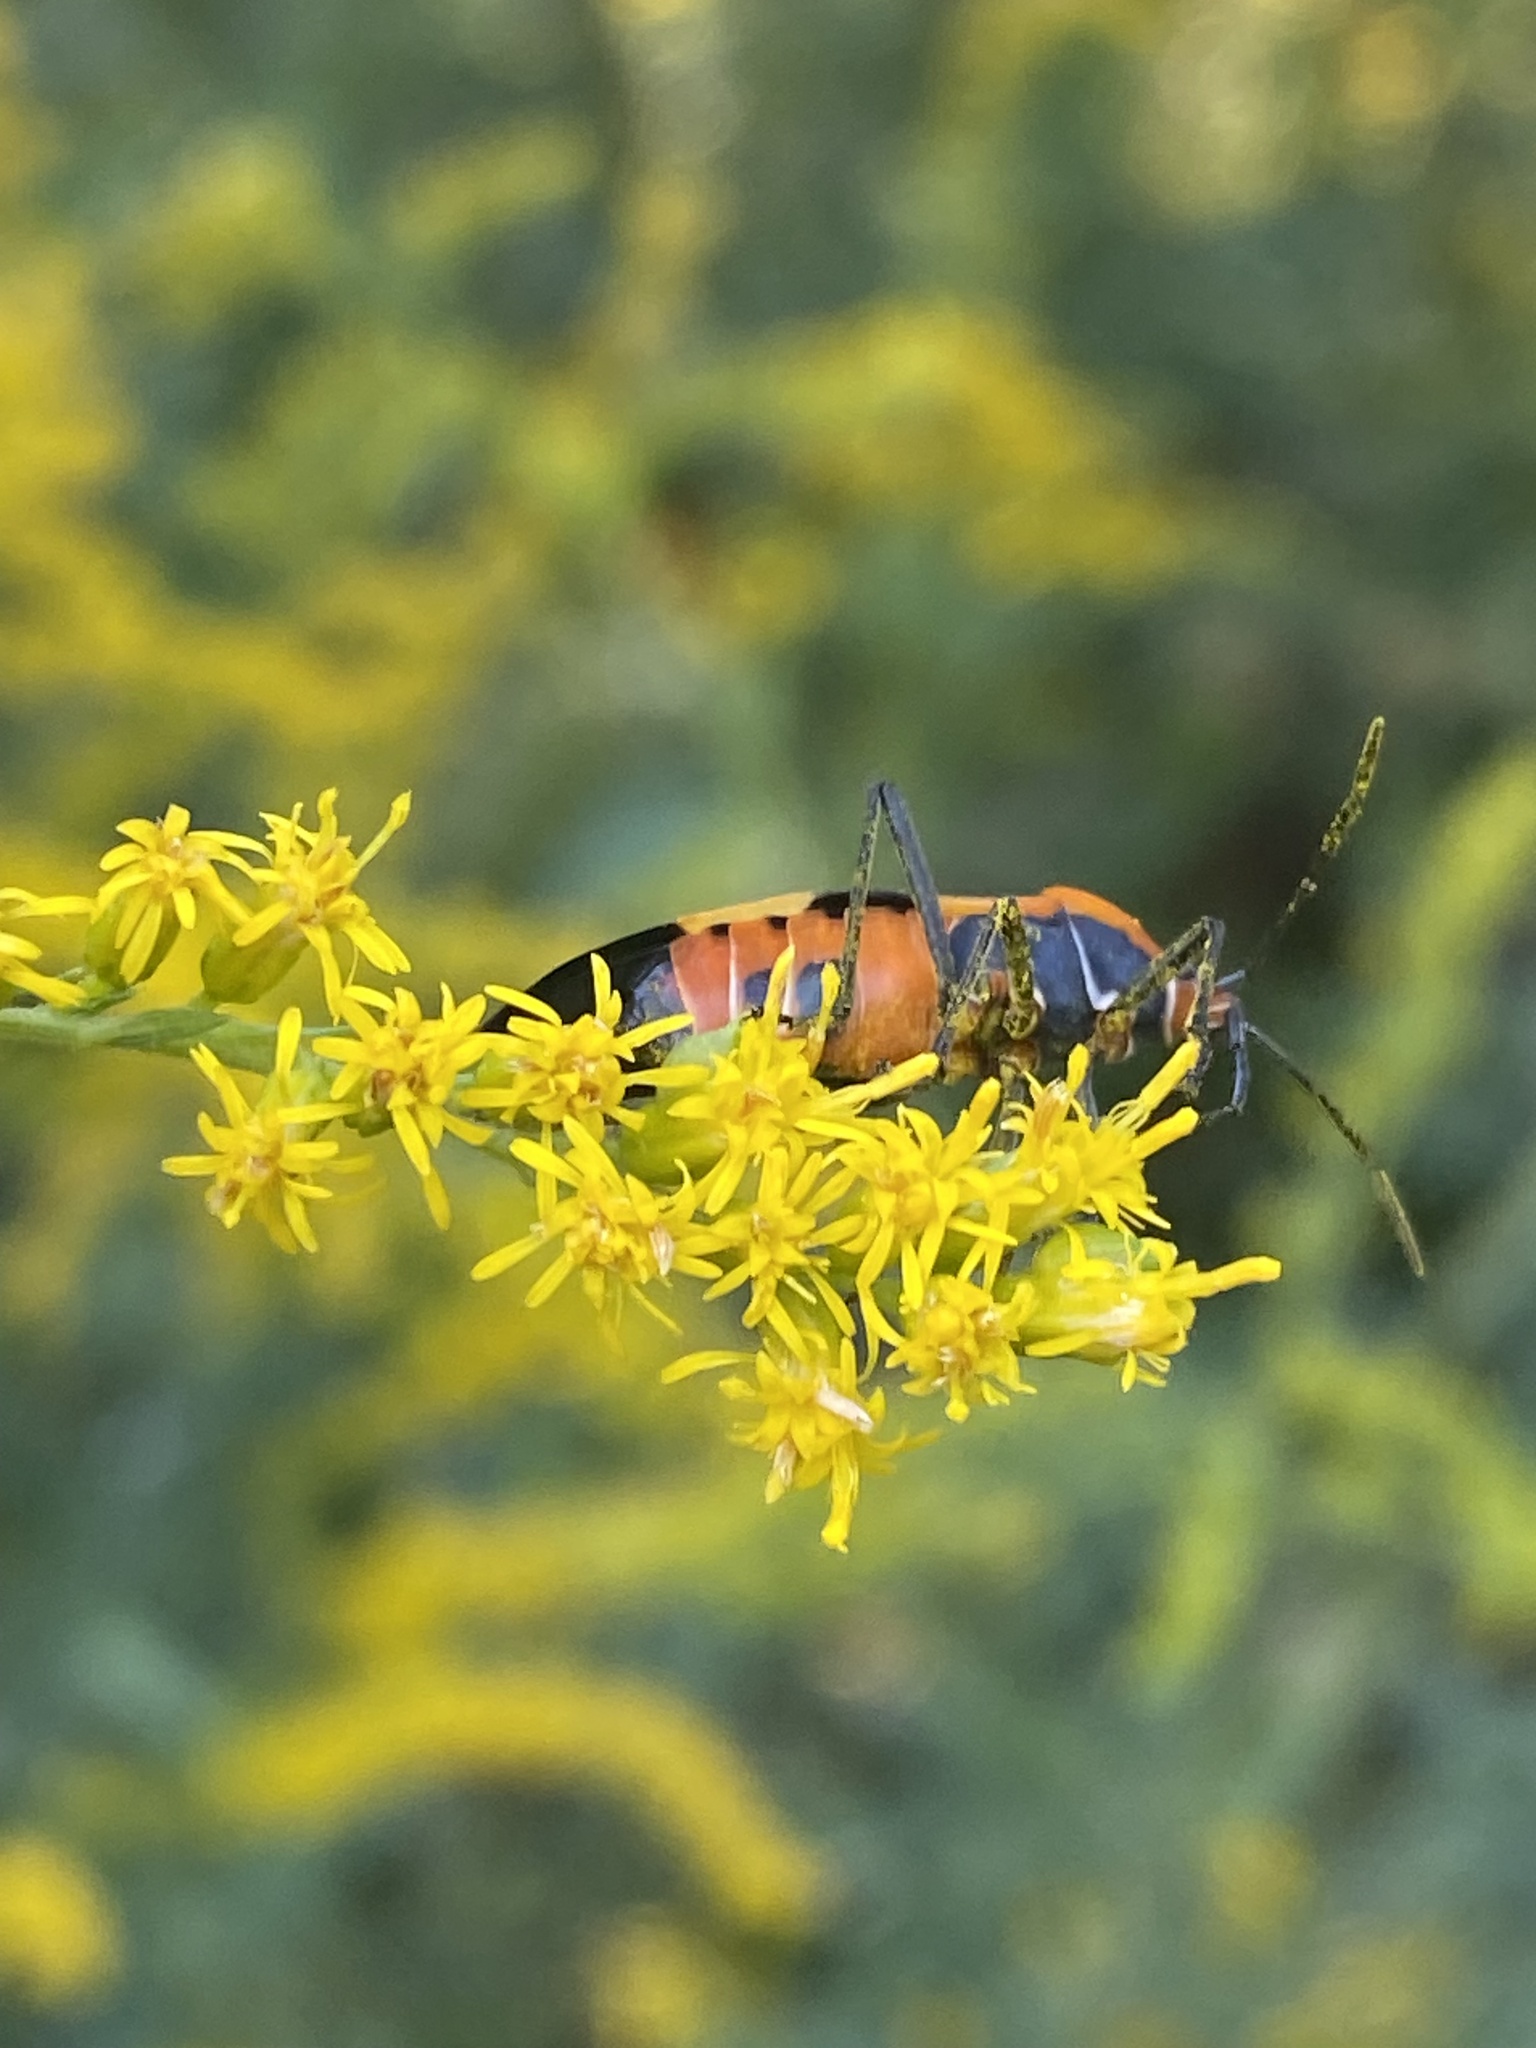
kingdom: Animalia
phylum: Arthropoda
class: Insecta
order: Hemiptera
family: Lygaeidae
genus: Oncopeltus
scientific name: Oncopeltus fasciatus
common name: Large milkweed bug
